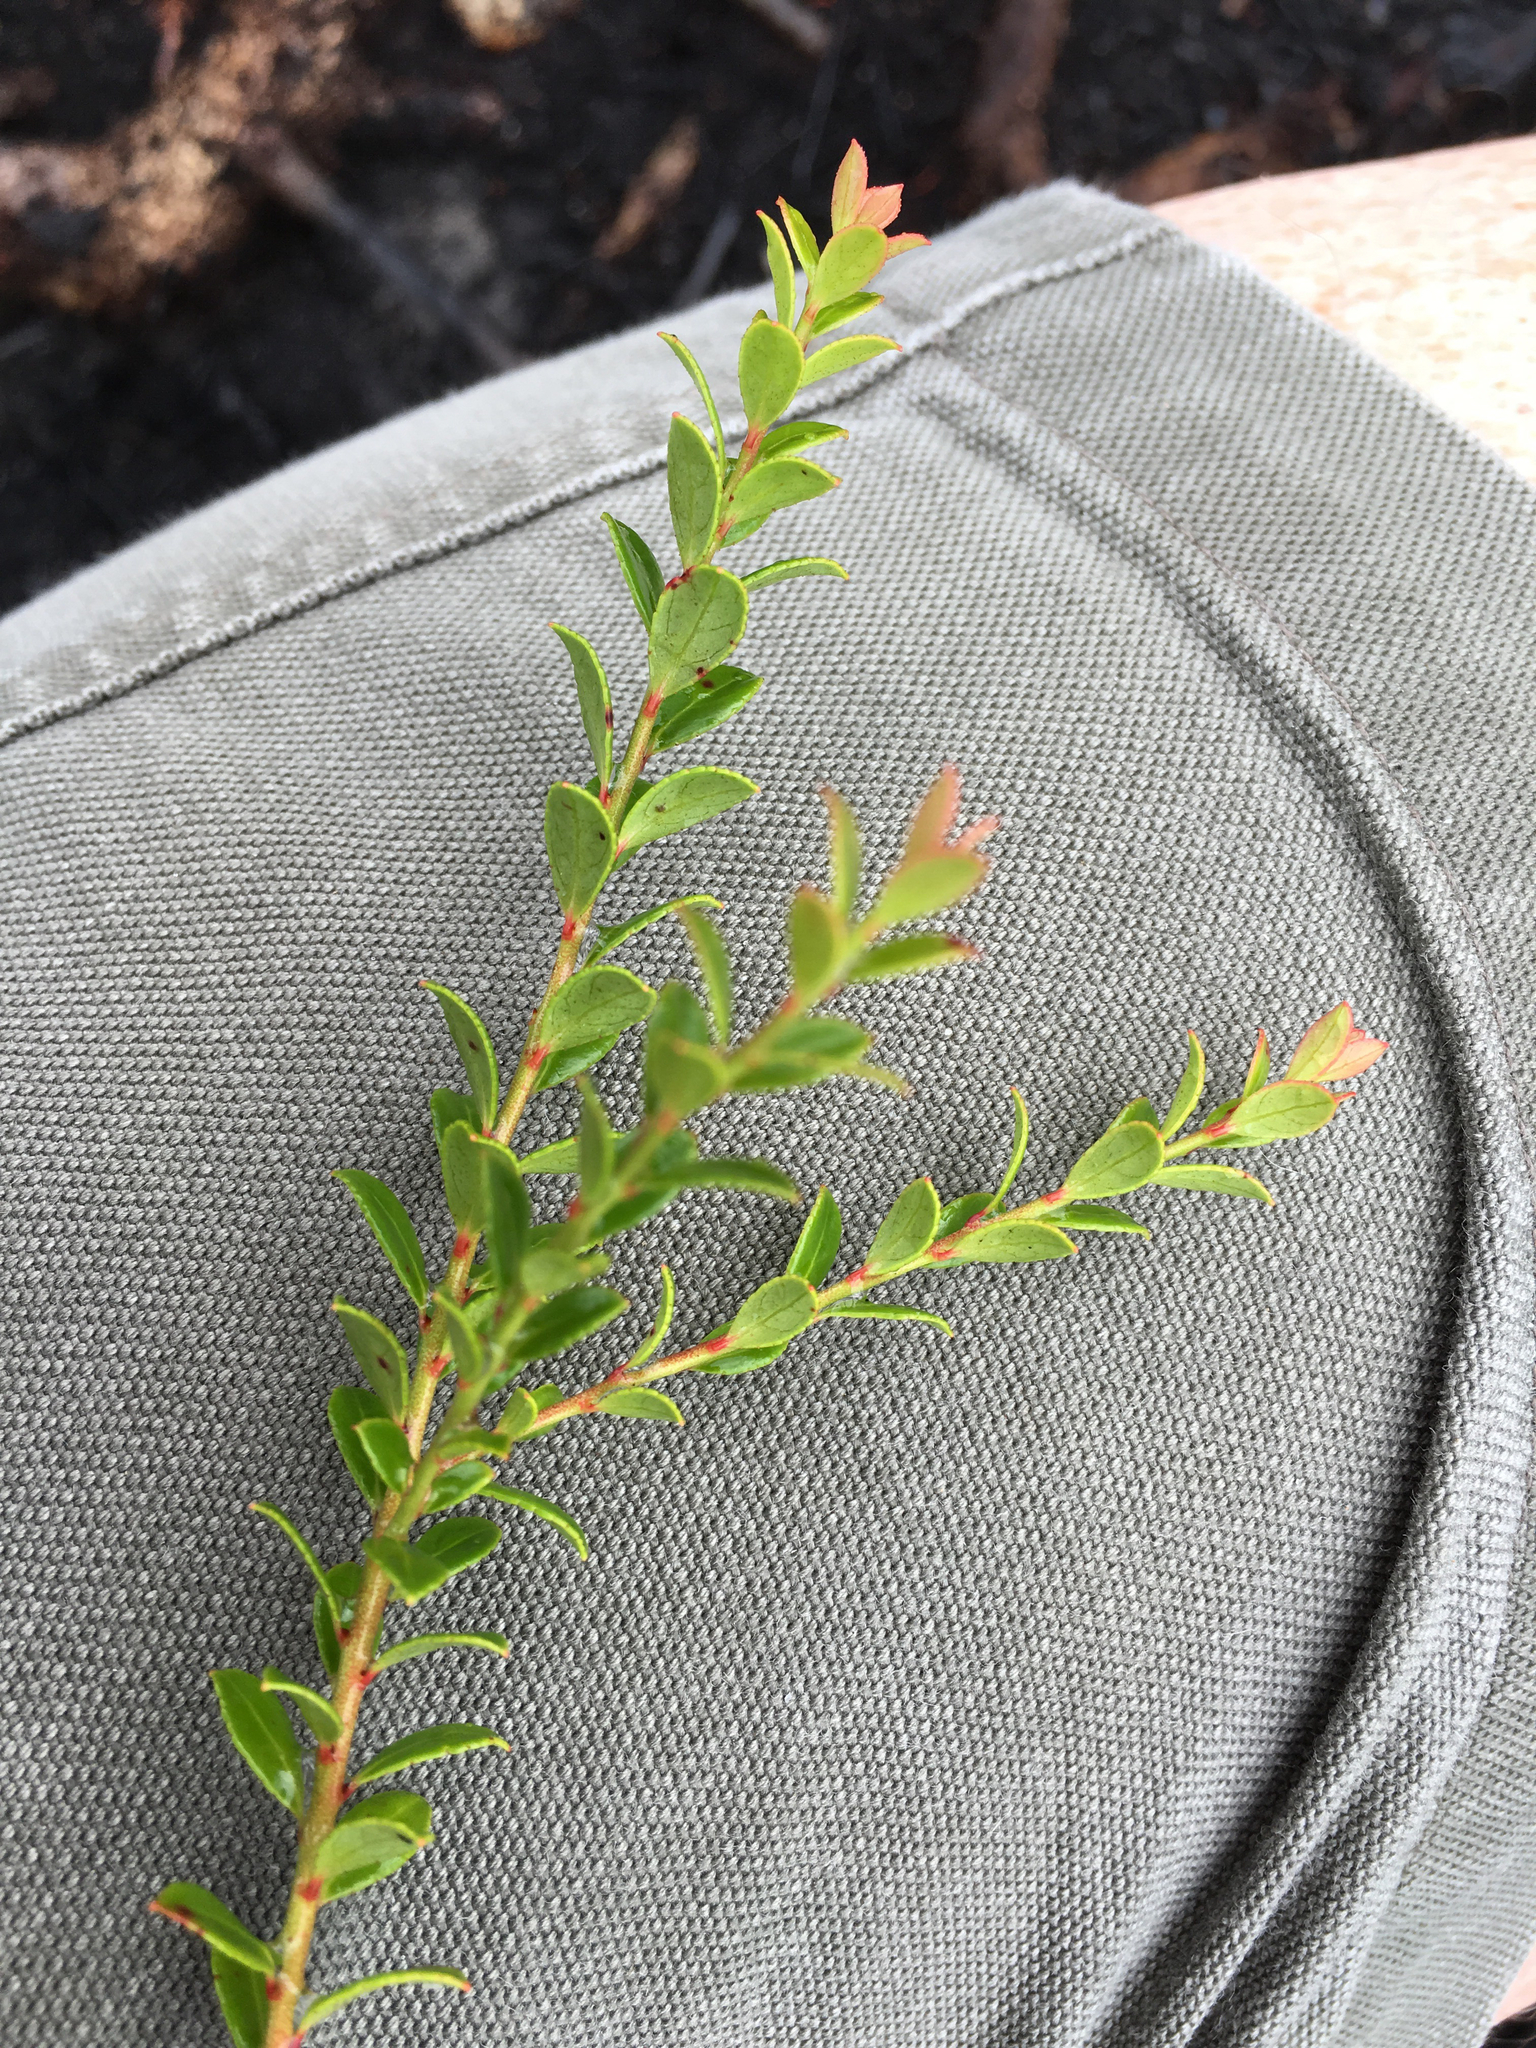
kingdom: Plantae
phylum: Tracheophyta
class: Magnoliopsida
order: Ericales
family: Ericaceae
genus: Vaccinium
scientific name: Vaccinium myrsinites
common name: Evergreen blueberry
